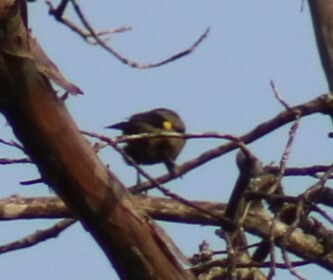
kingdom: Animalia
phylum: Chordata
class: Aves
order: Passeriformes
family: Thraupidae
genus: Thraupis
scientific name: Thraupis abbas
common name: Yellow-winged tanager
